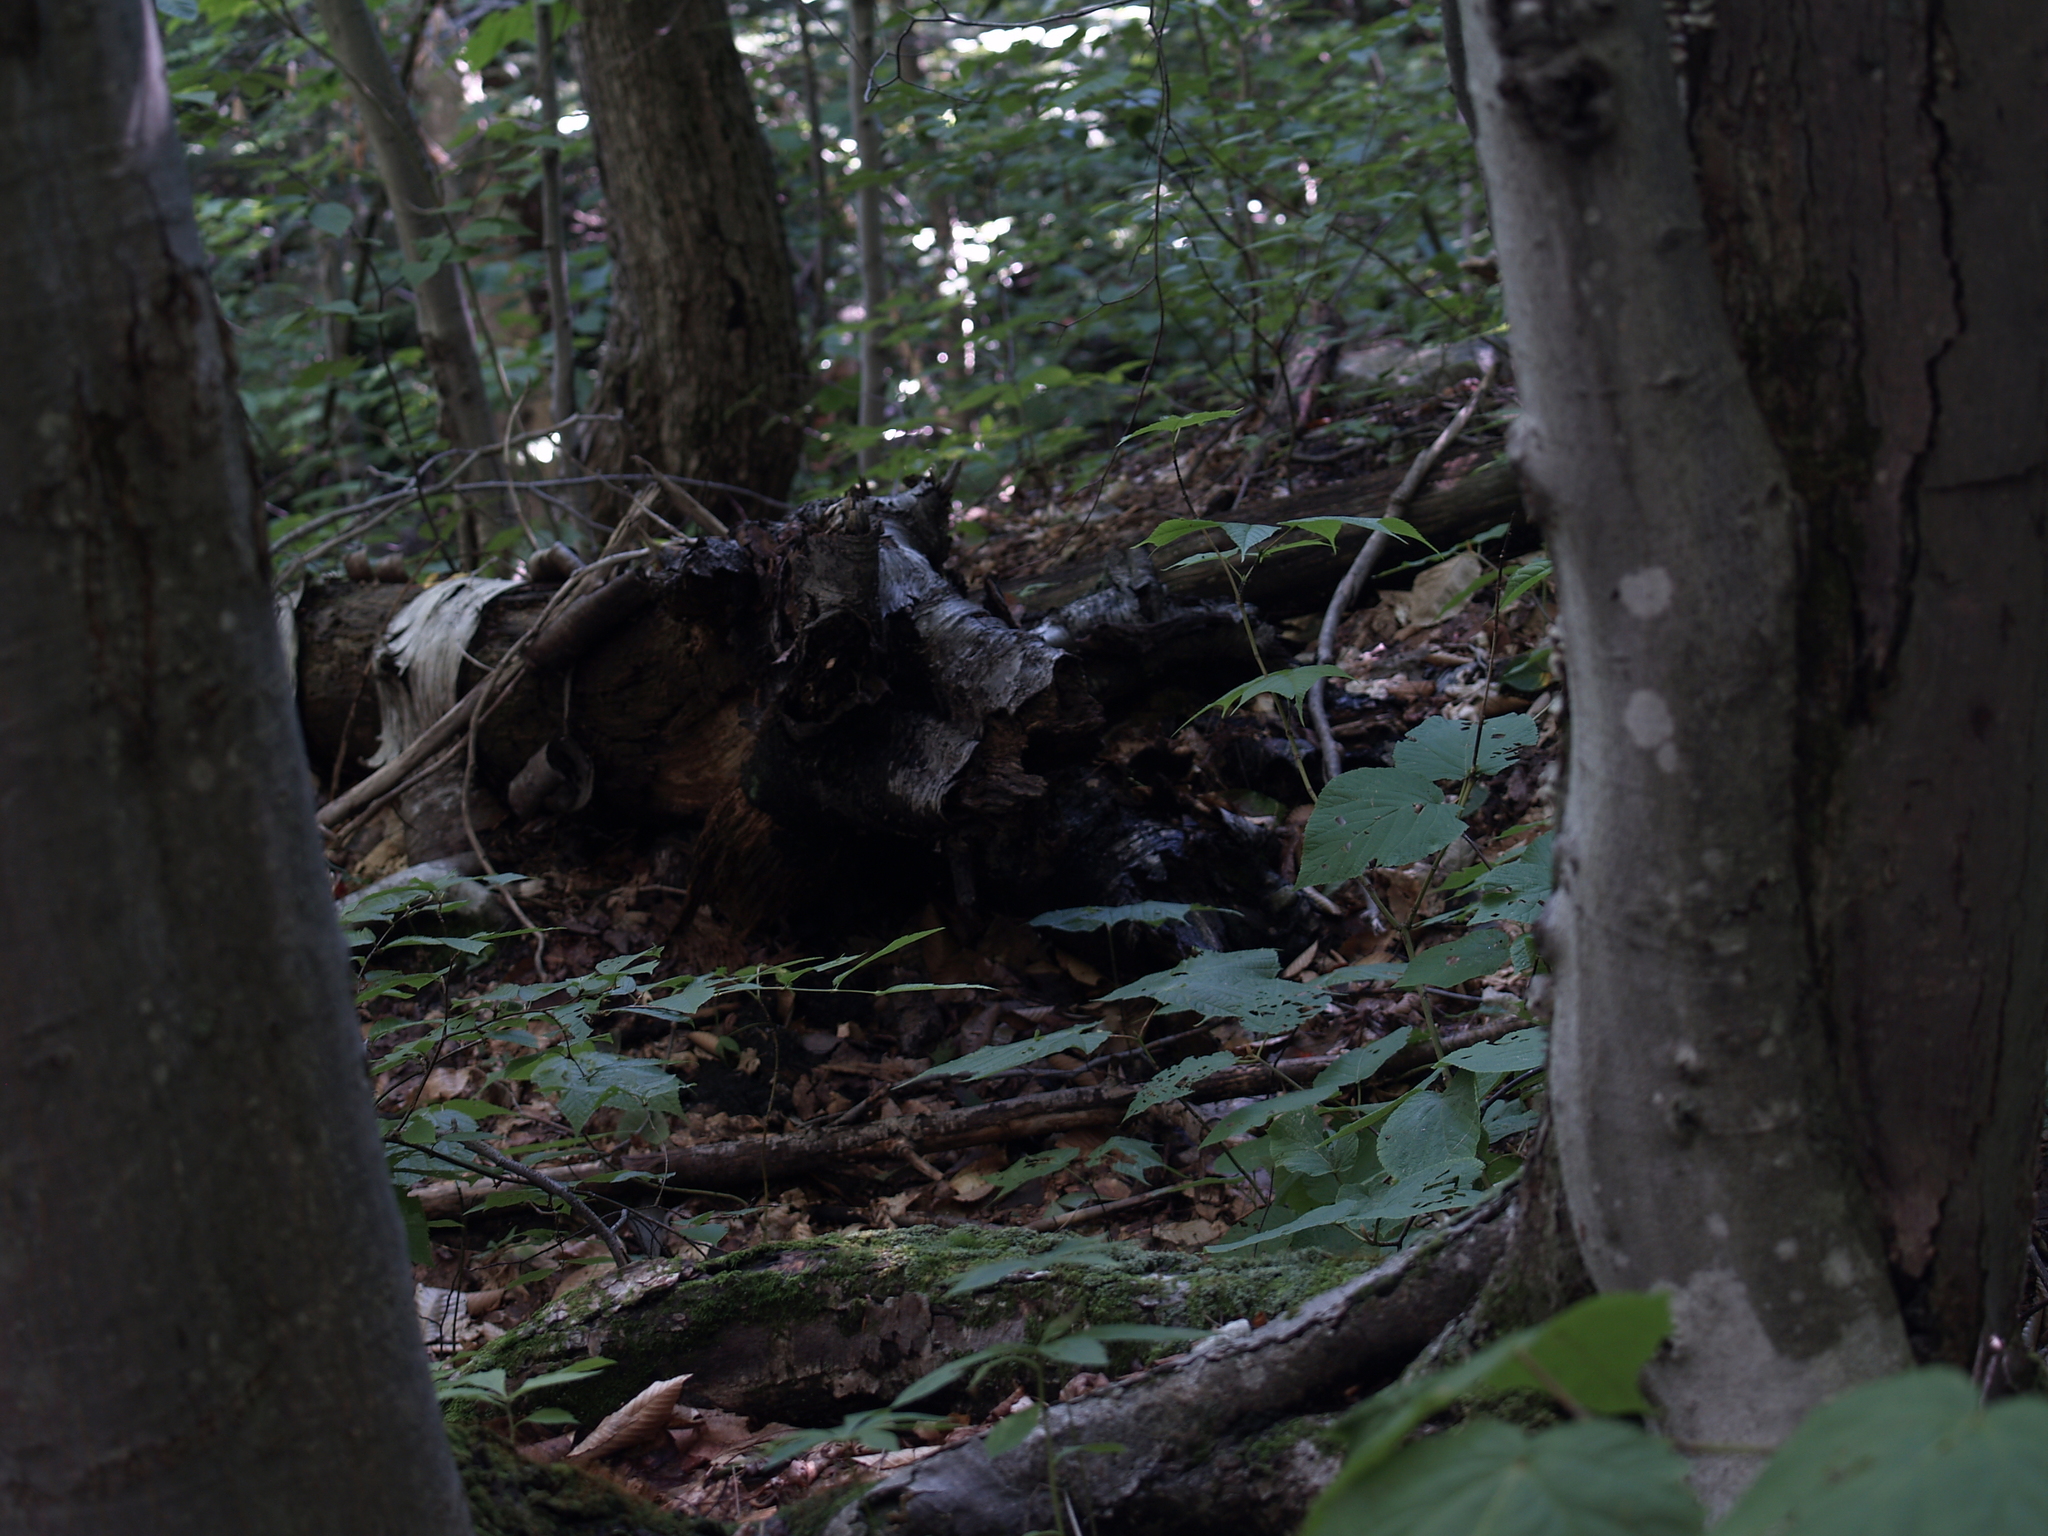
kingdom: Plantae
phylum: Tracheophyta
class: Magnoliopsida
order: Dipsacales
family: Viburnaceae
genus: Viburnum
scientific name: Viburnum lantanoides
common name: Hobblebush
